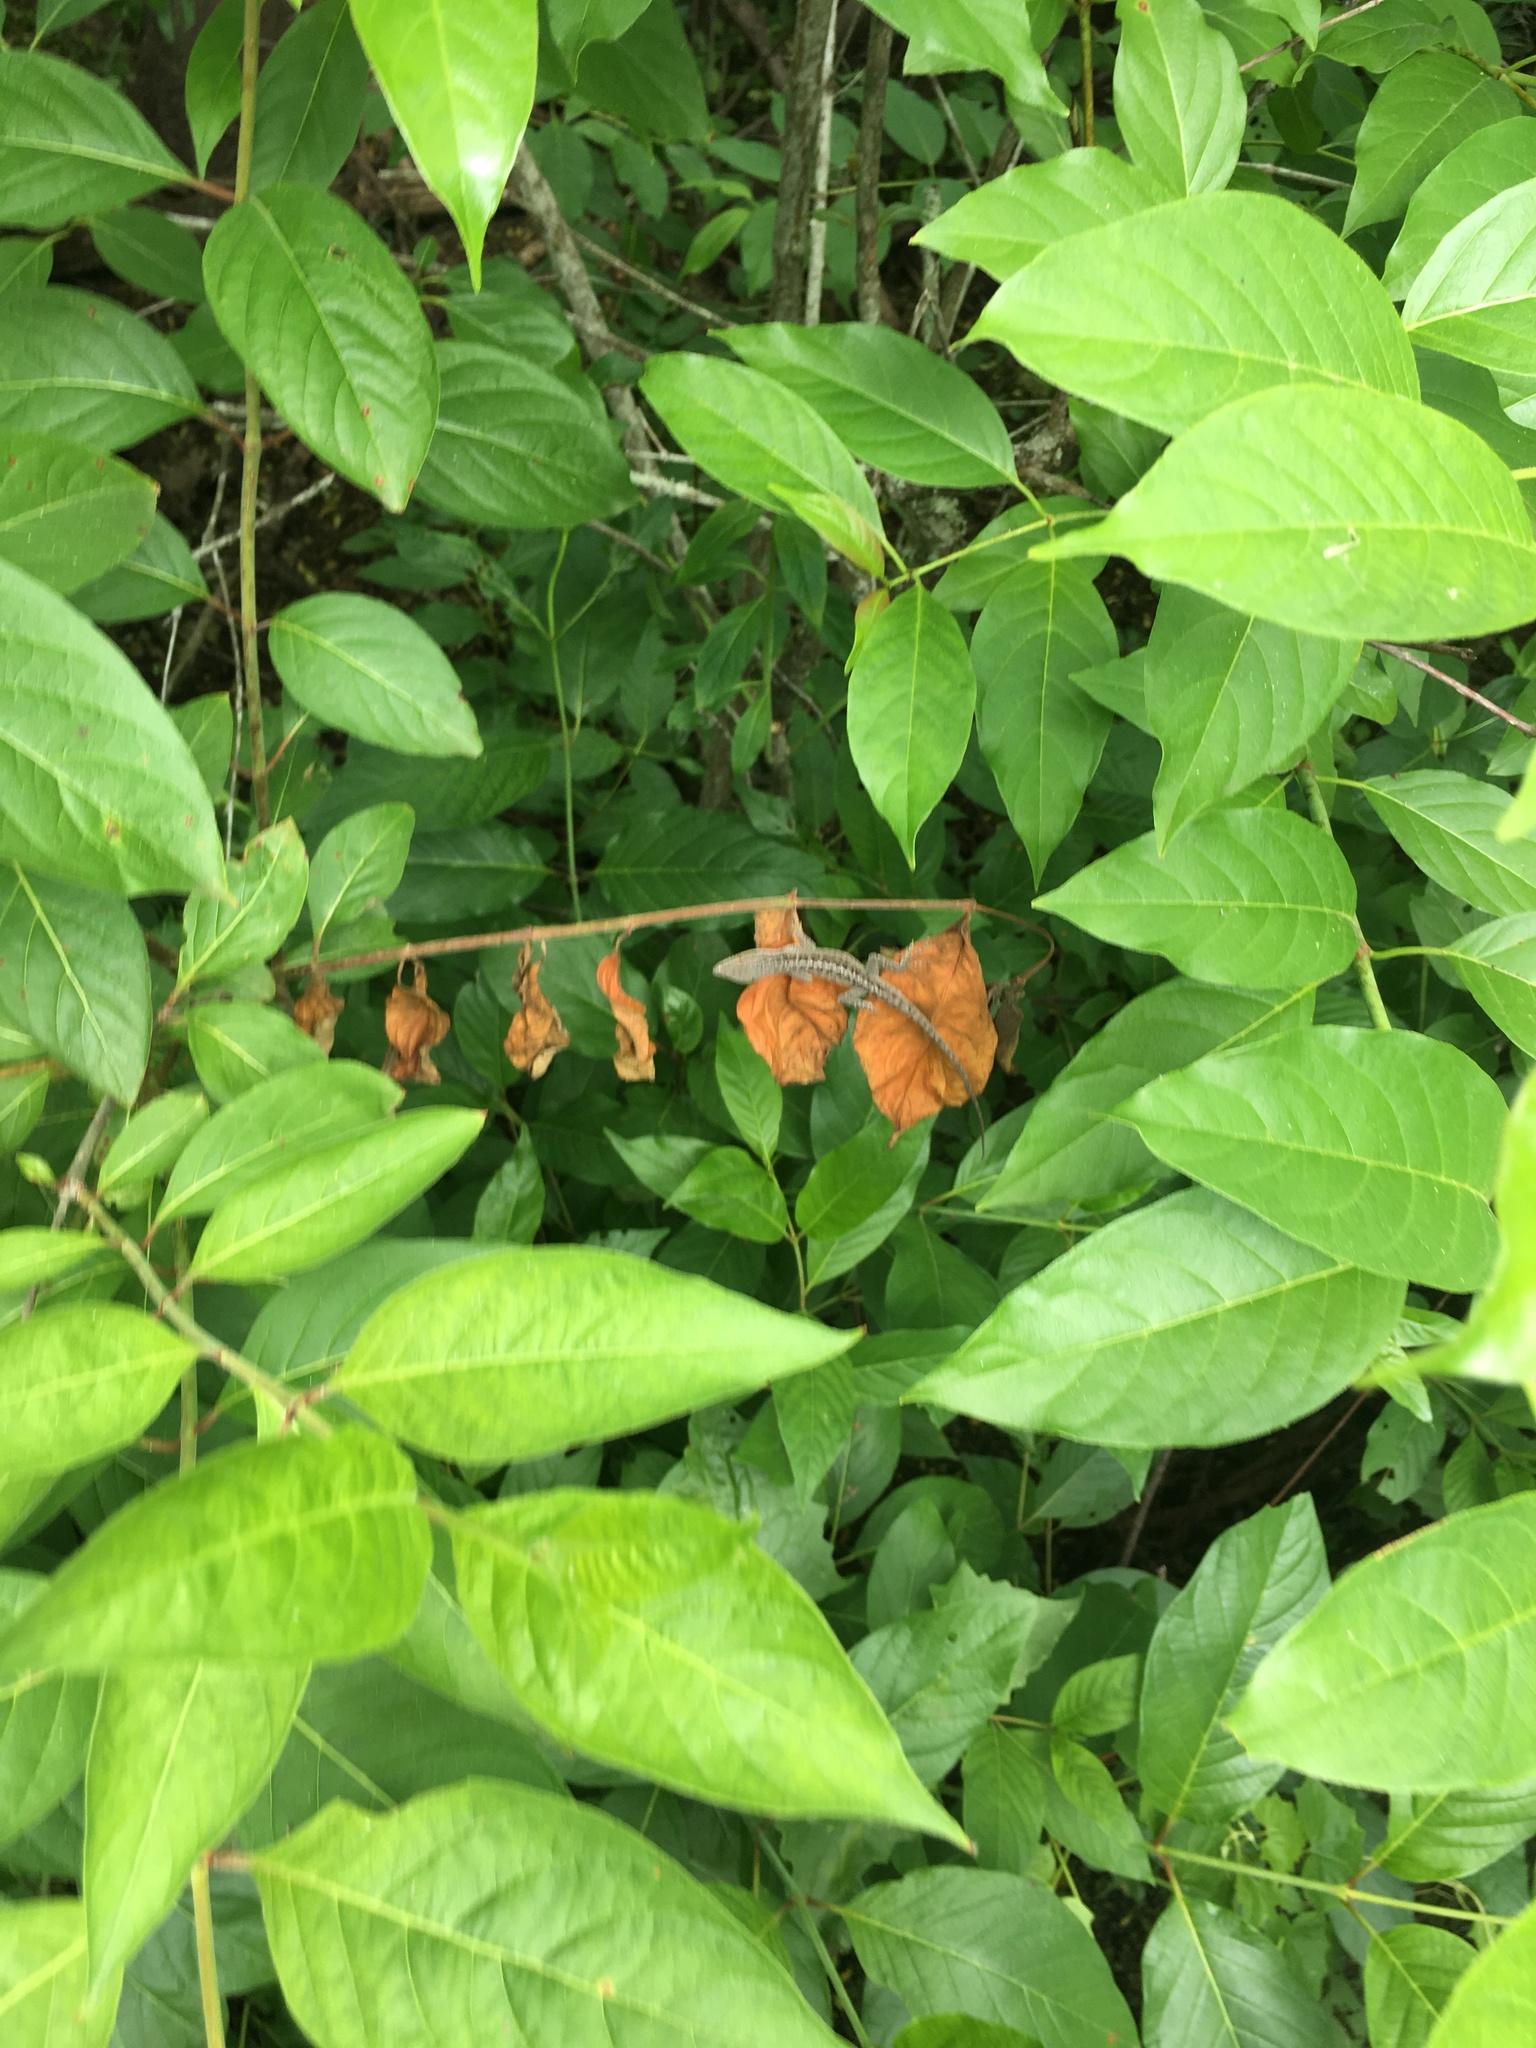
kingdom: Animalia
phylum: Chordata
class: Squamata
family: Dactyloidae
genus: Anolis
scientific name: Anolis carolinensis
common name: Green anole
